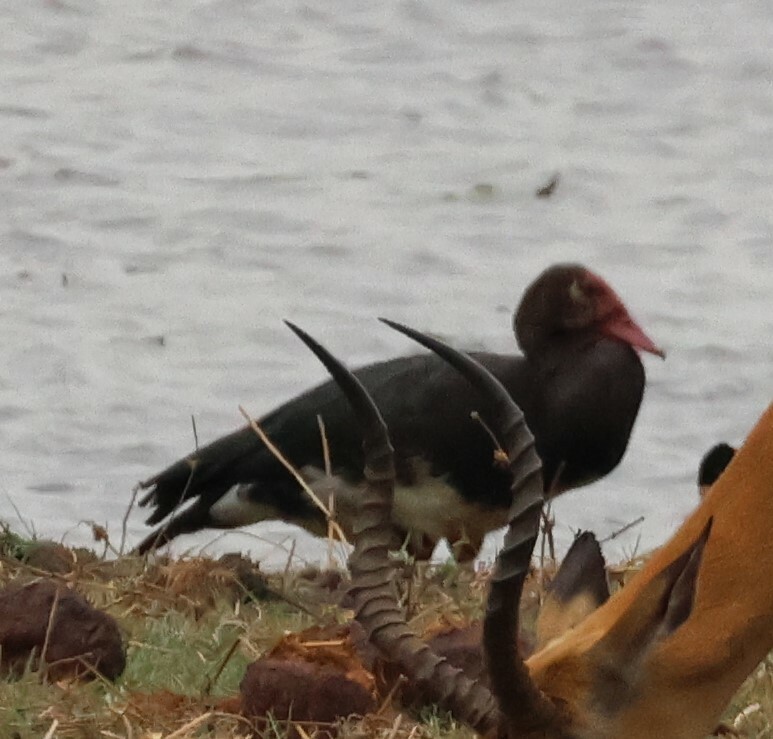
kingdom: Animalia
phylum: Chordata
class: Aves
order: Anseriformes
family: Anatidae
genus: Plectropterus
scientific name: Plectropterus gambensis
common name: Spur-winged goose
